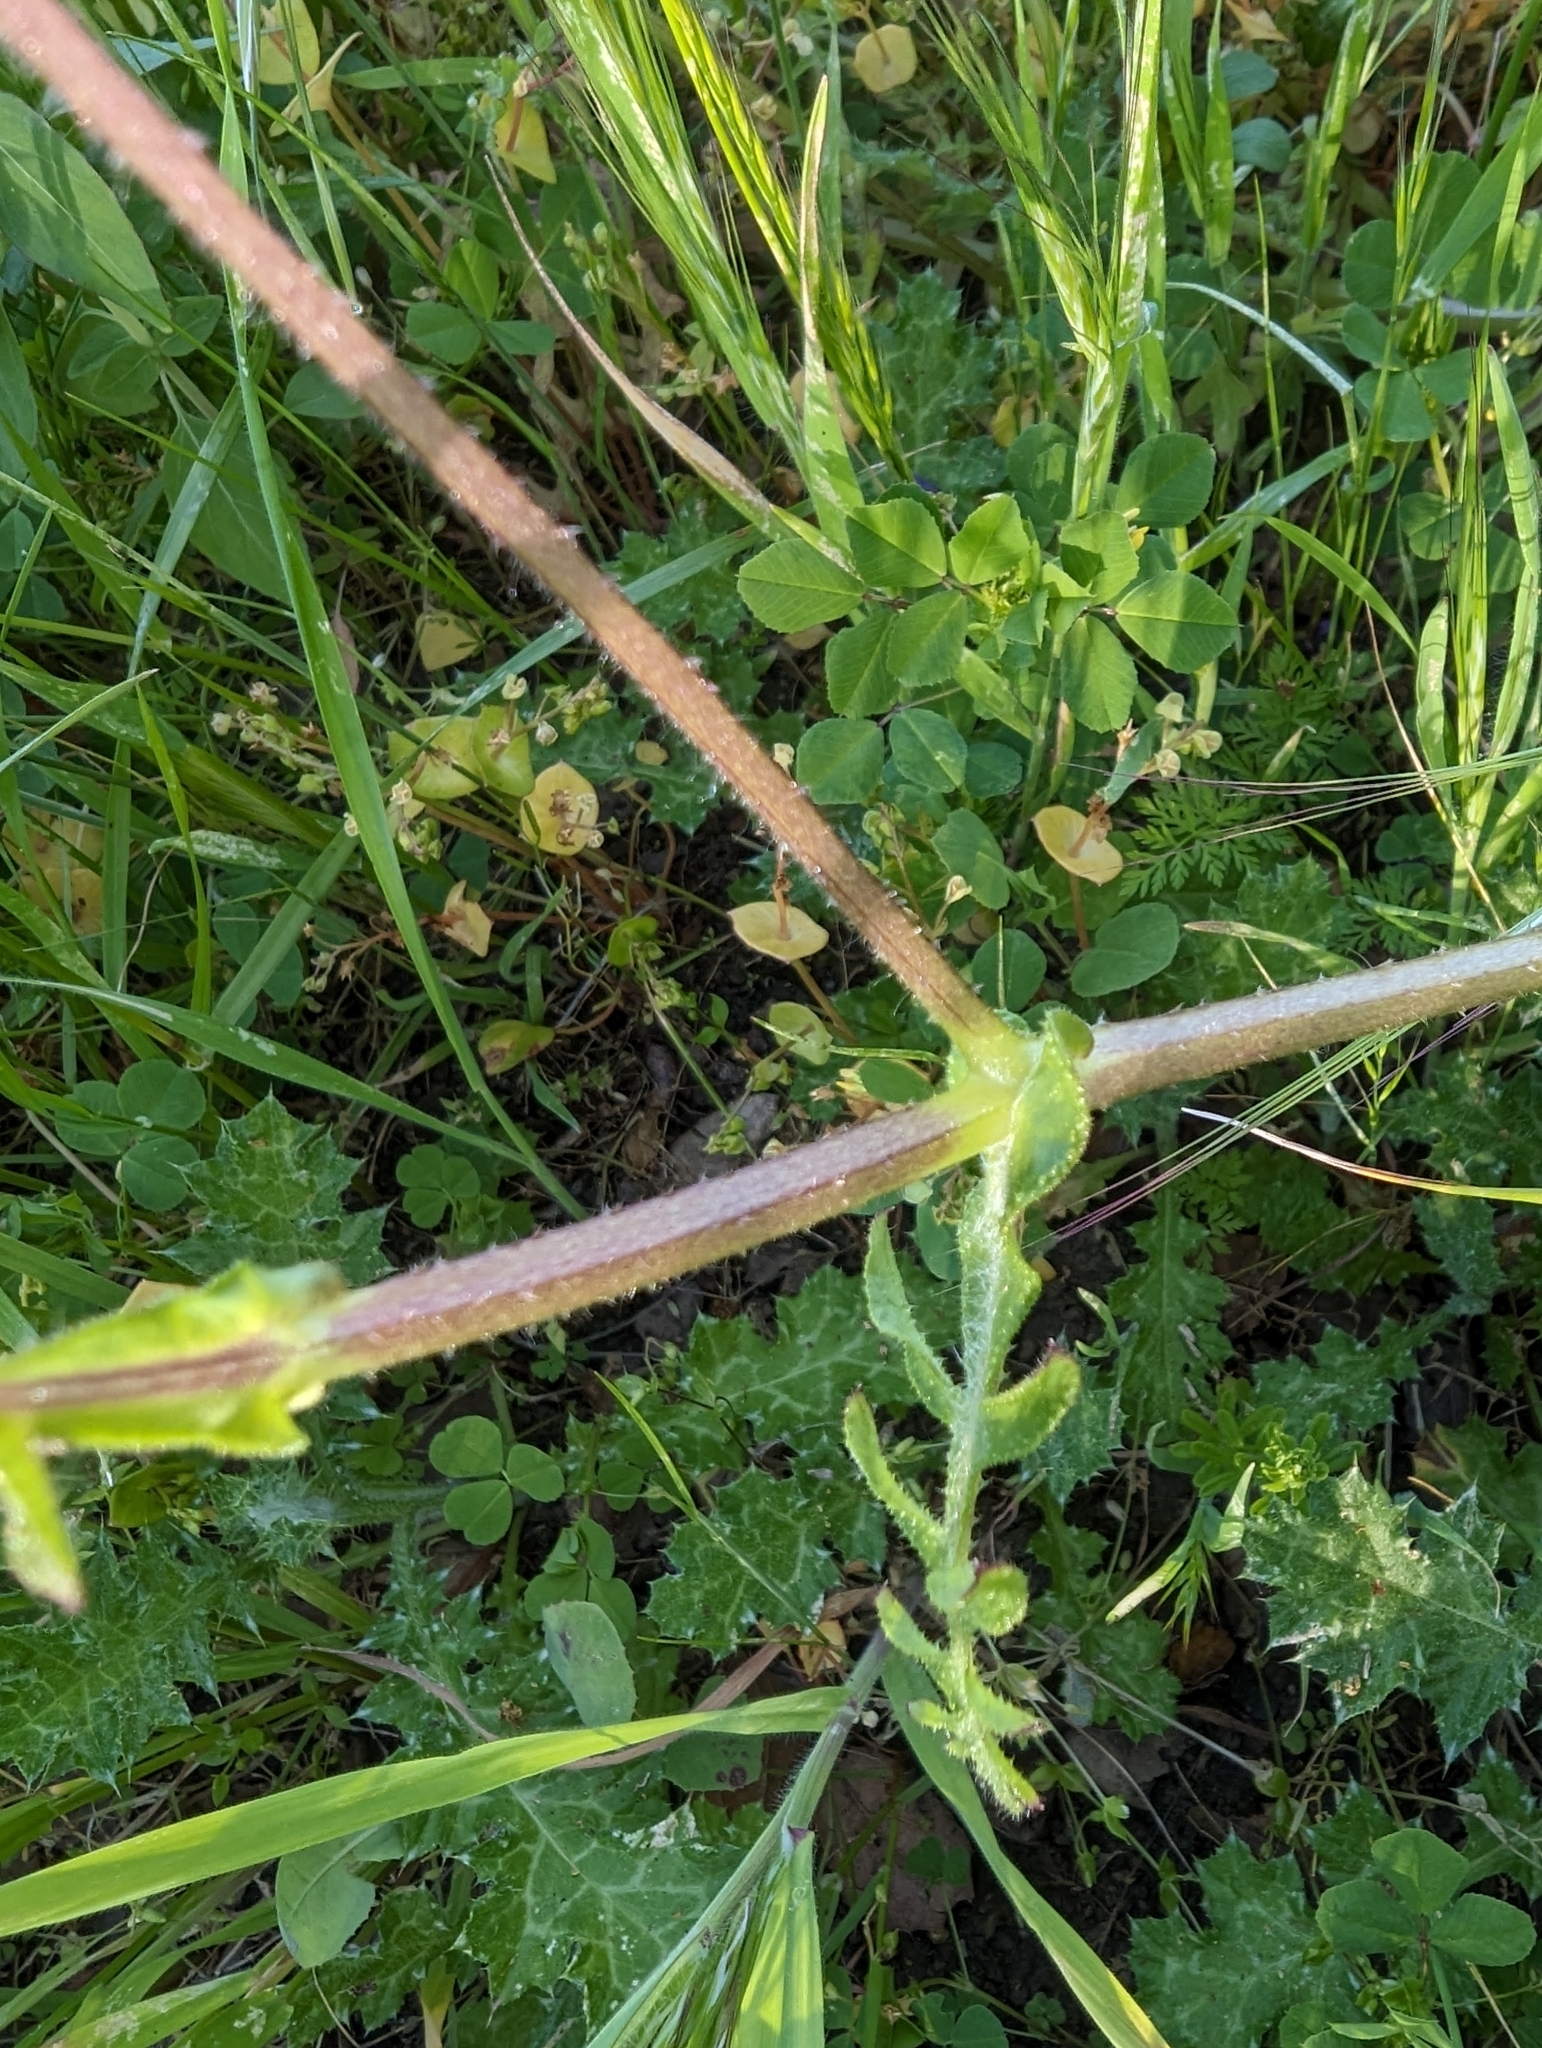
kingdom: Plantae
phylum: Tracheophyta
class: Magnoliopsida
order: Boraginales
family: Hydrophyllaceae
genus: Pholistoma
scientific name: Pholistoma auritum
